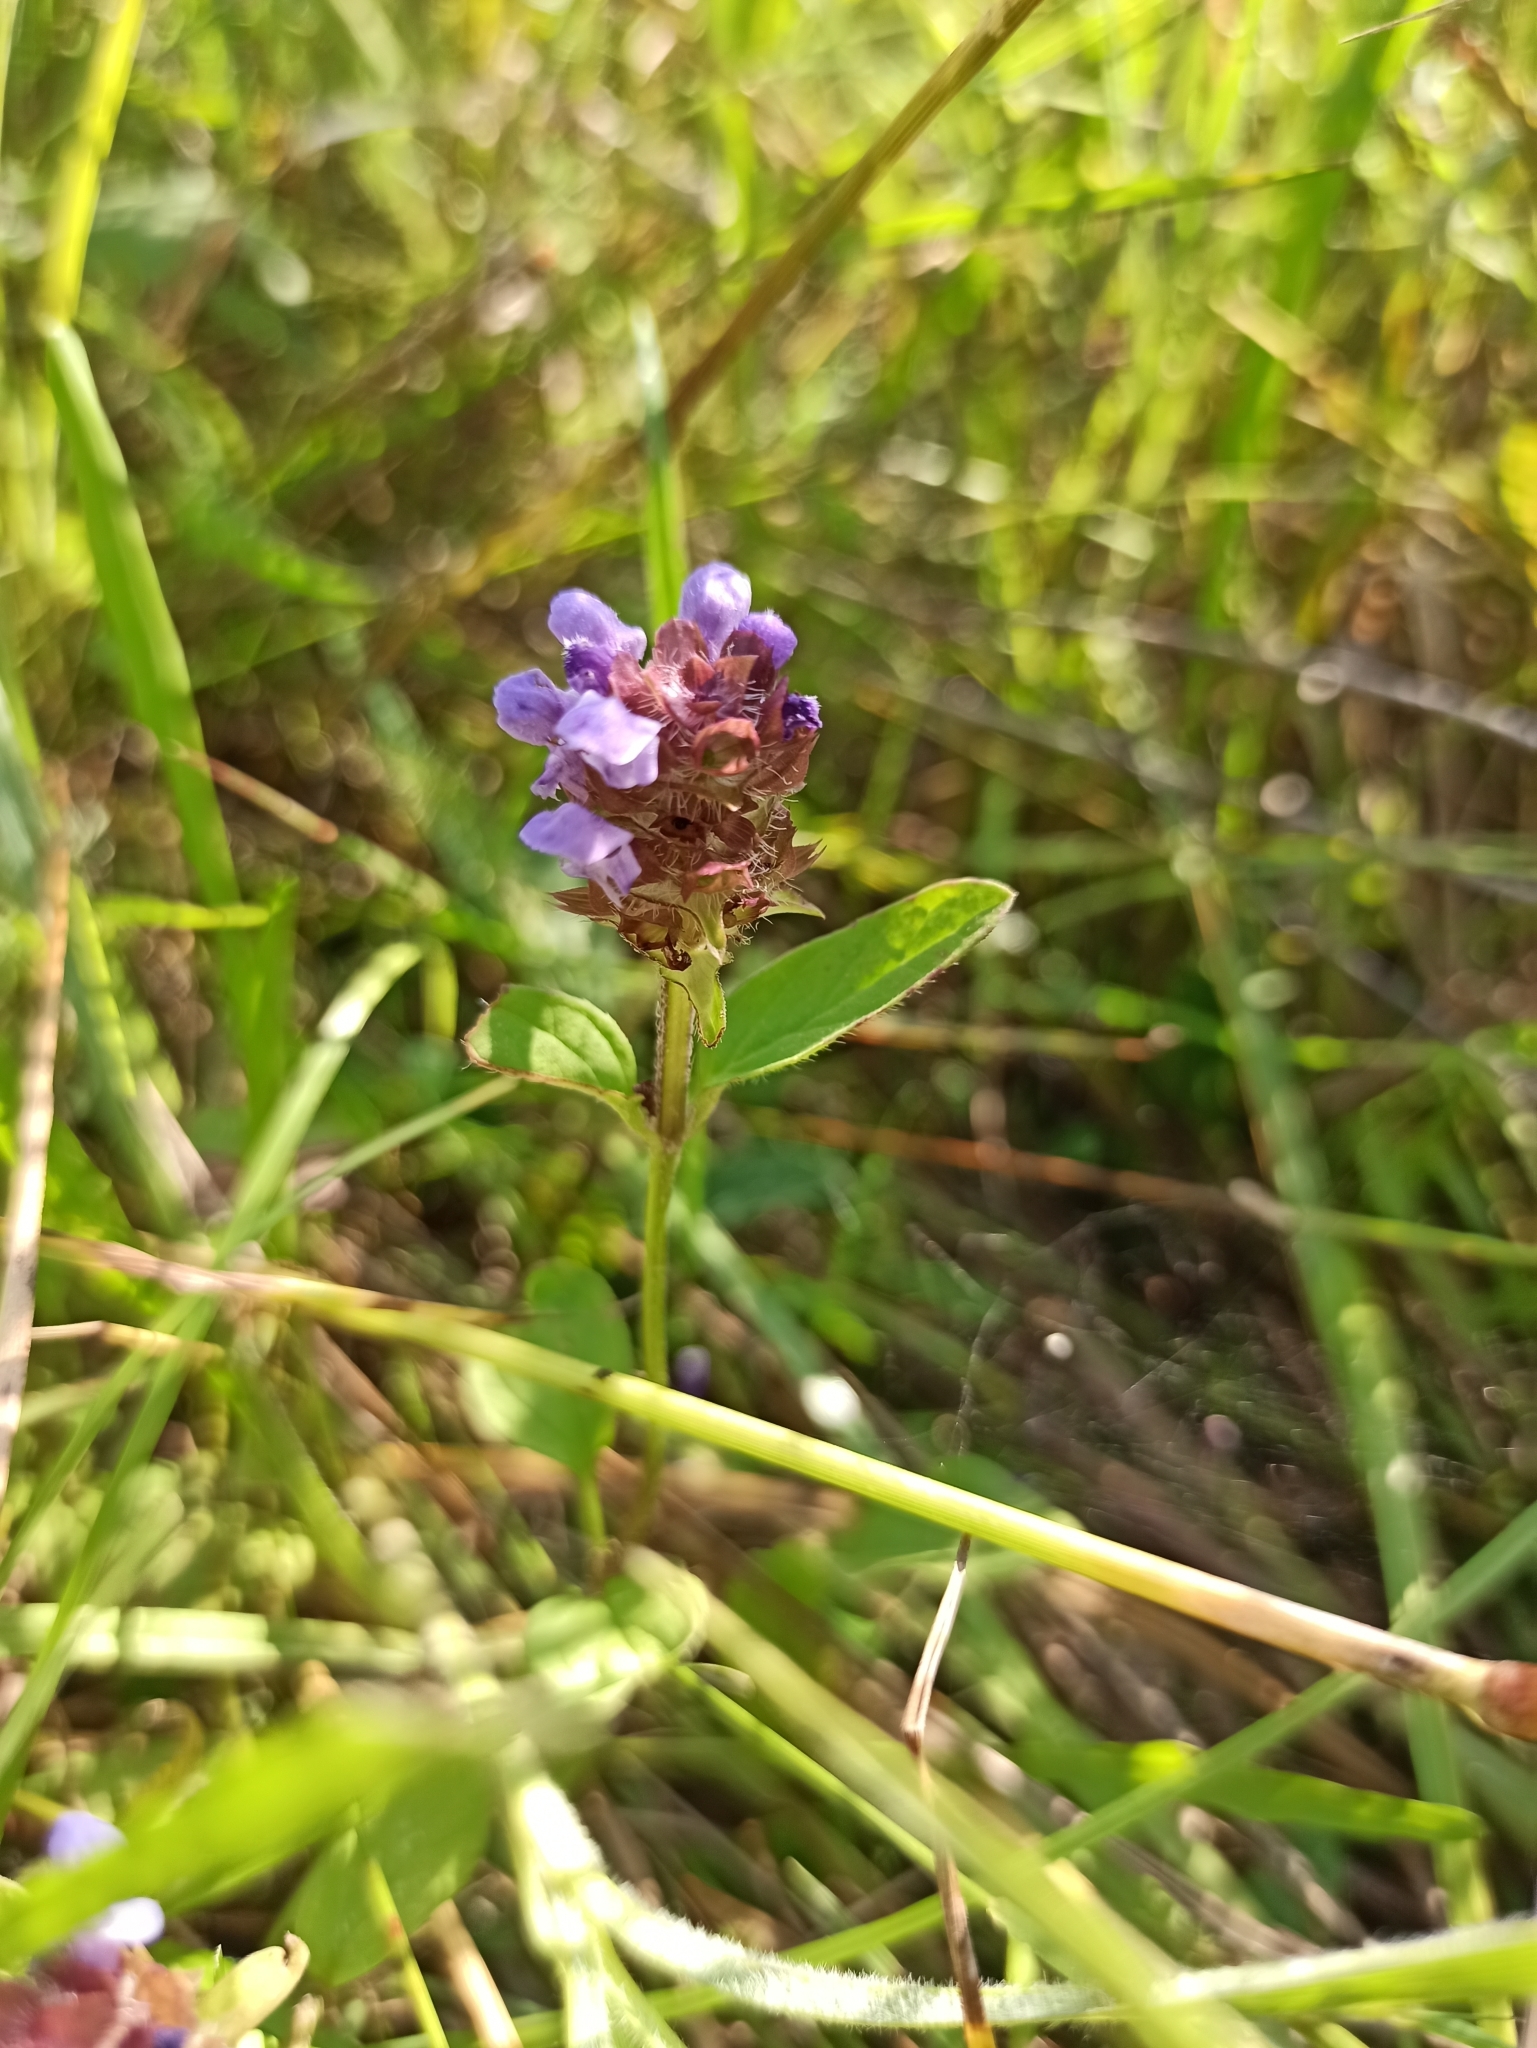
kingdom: Plantae
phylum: Tracheophyta
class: Magnoliopsida
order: Lamiales
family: Lamiaceae
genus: Prunella
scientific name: Prunella vulgaris
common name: Heal-all
